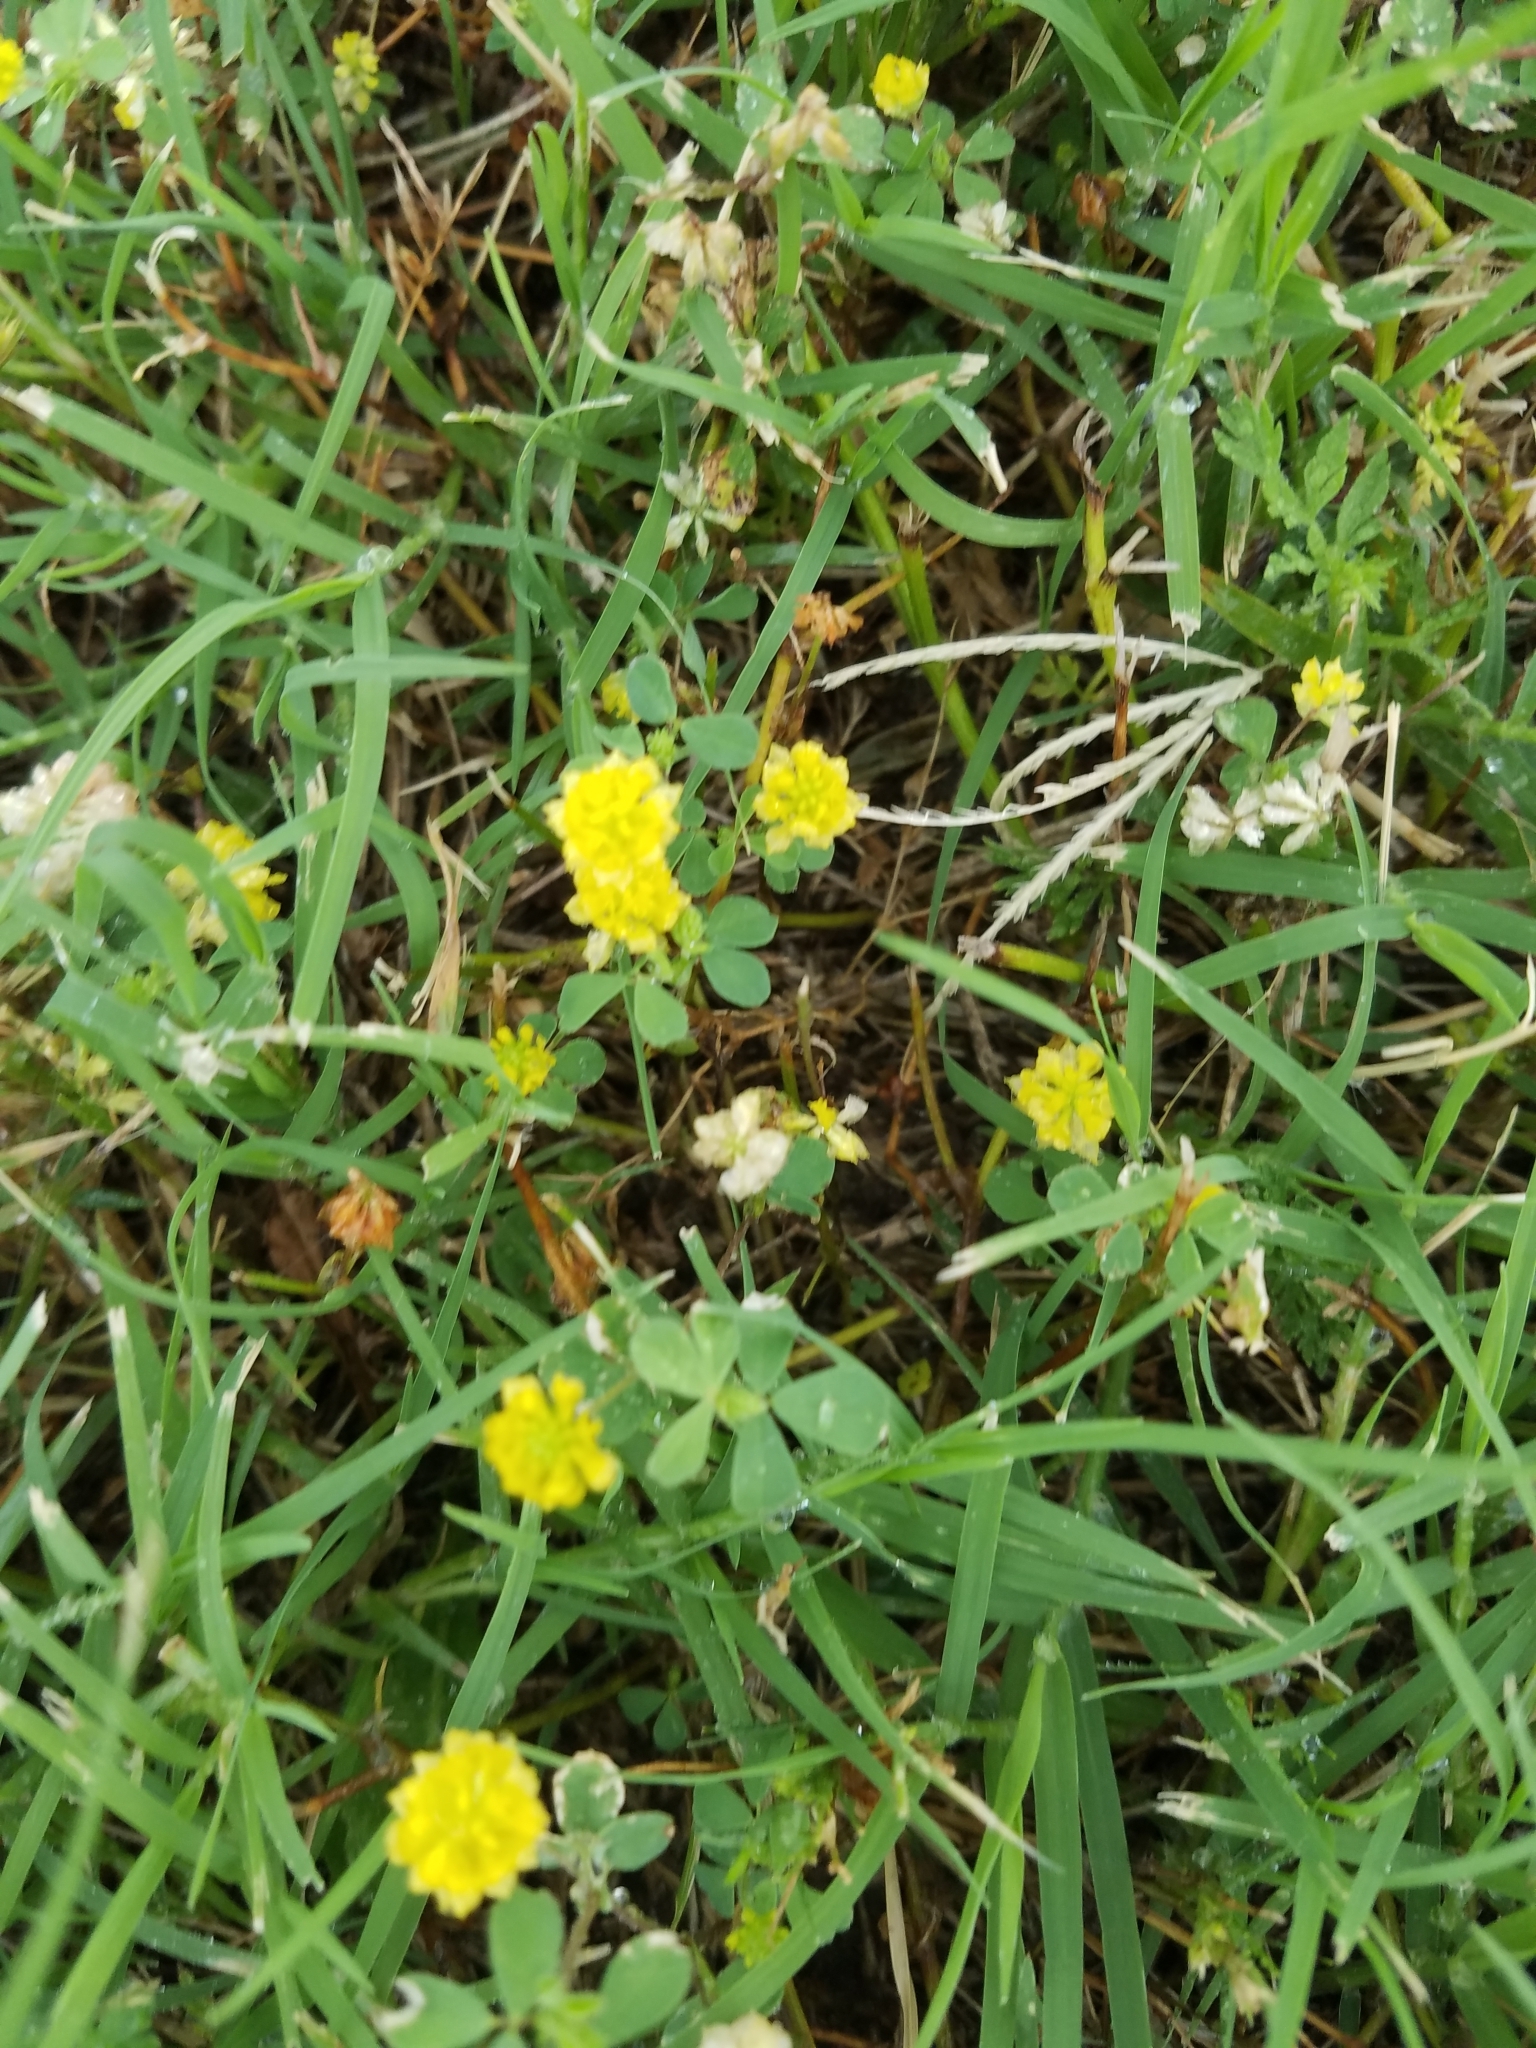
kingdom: Plantae
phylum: Tracheophyta
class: Magnoliopsida
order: Fabales
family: Fabaceae
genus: Trifolium
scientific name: Trifolium campestre
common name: Field clover
